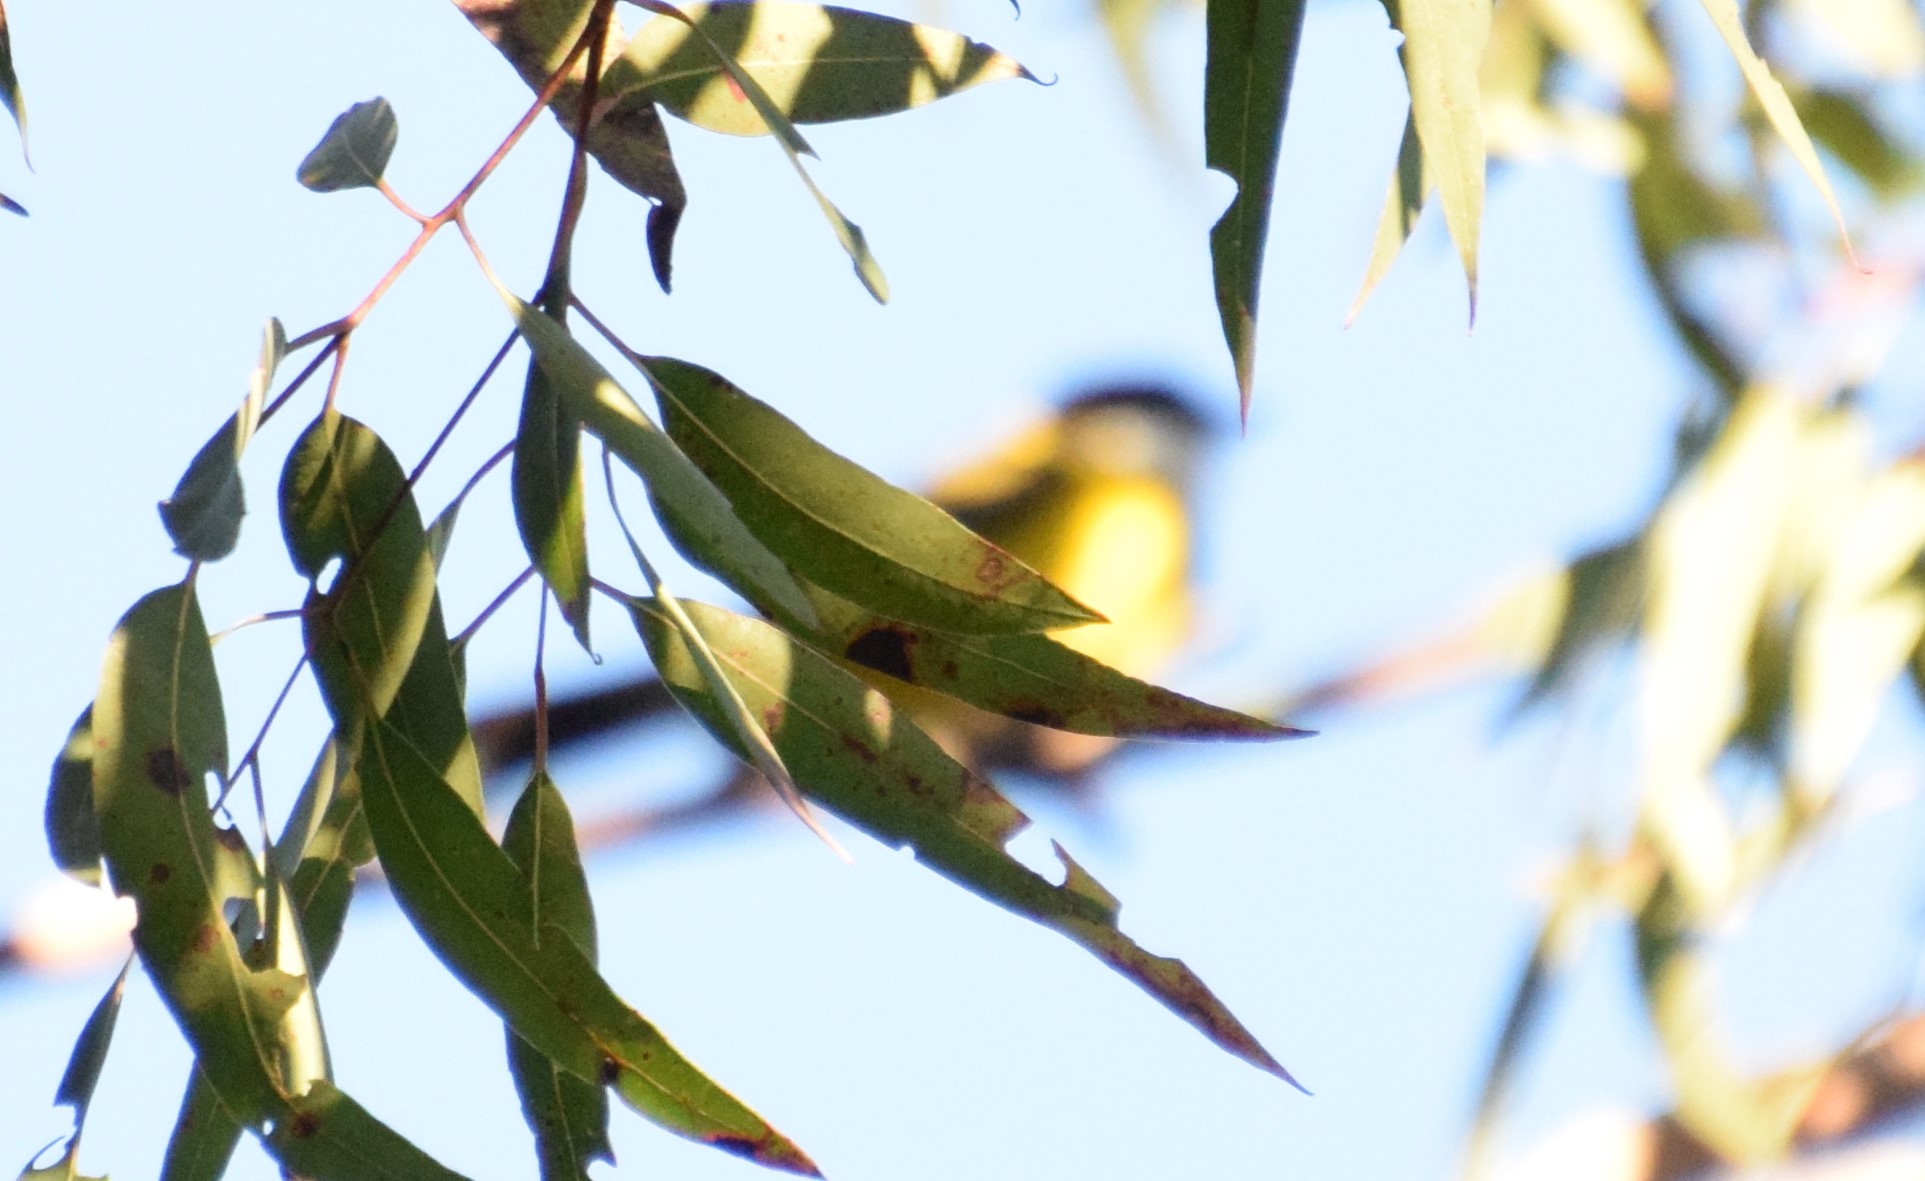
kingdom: Animalia
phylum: Chordata
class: Aves
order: Passeriformes
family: Pachycephalidae
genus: Pachycephala
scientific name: Pachycephala pectoralis
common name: Australian golden whistler
